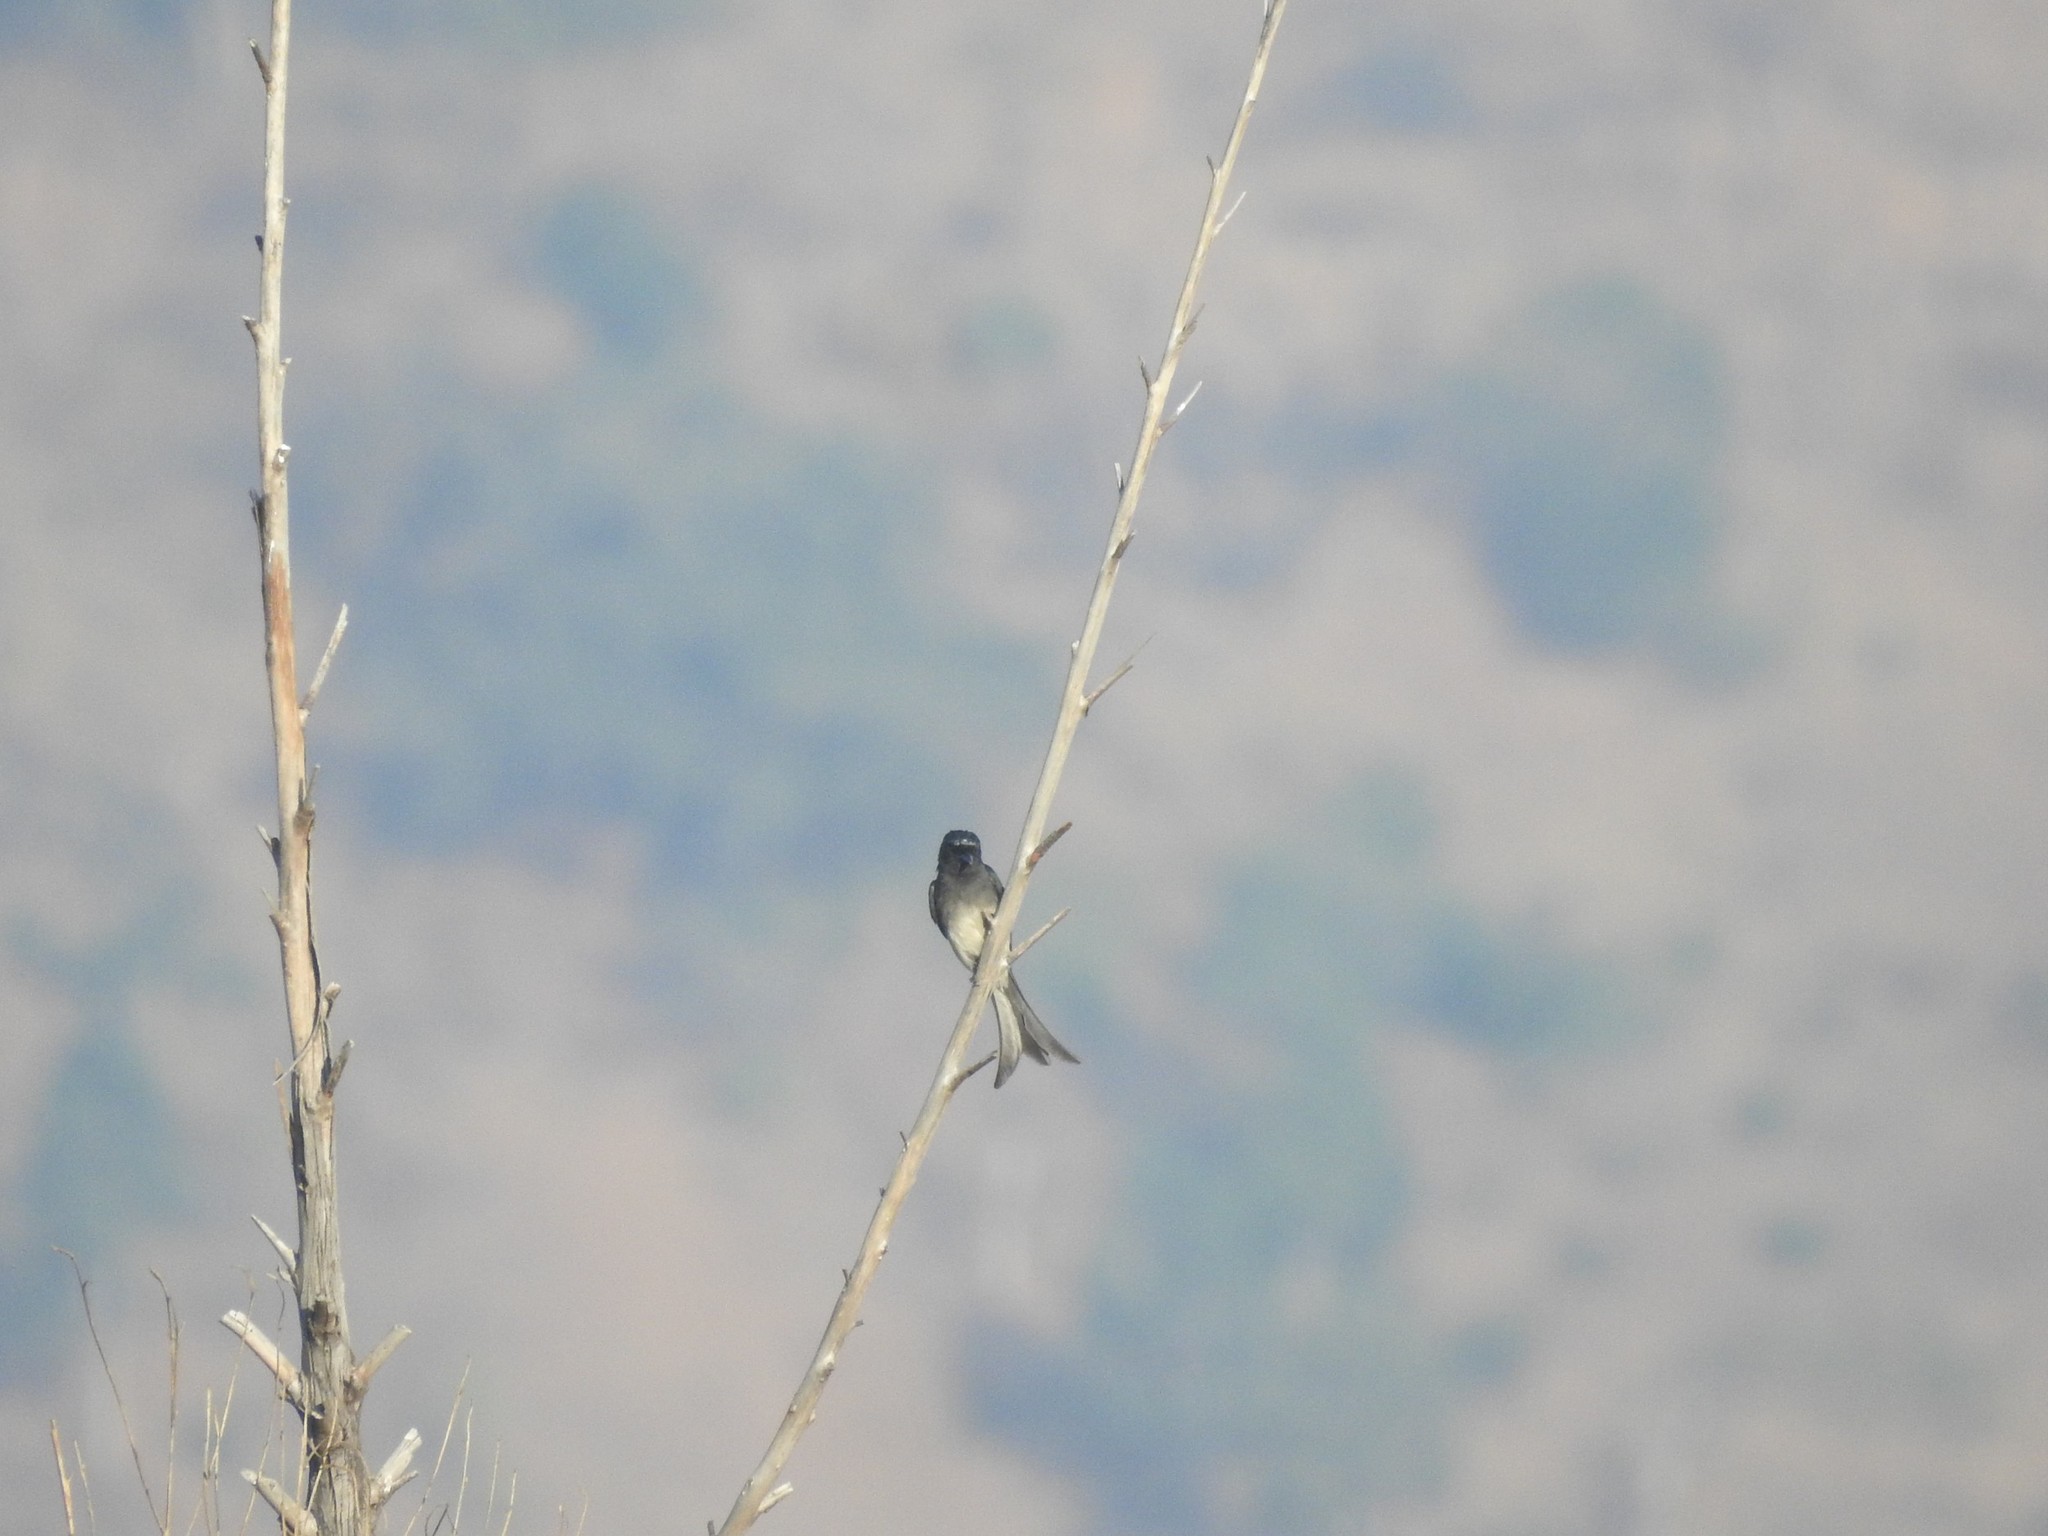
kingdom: Animalia
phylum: Chordata
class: Aves
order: Passeriformes
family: Dicruridae
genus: Dicrurus
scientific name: Dicrurus caerulescens
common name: White-bellied drongo
